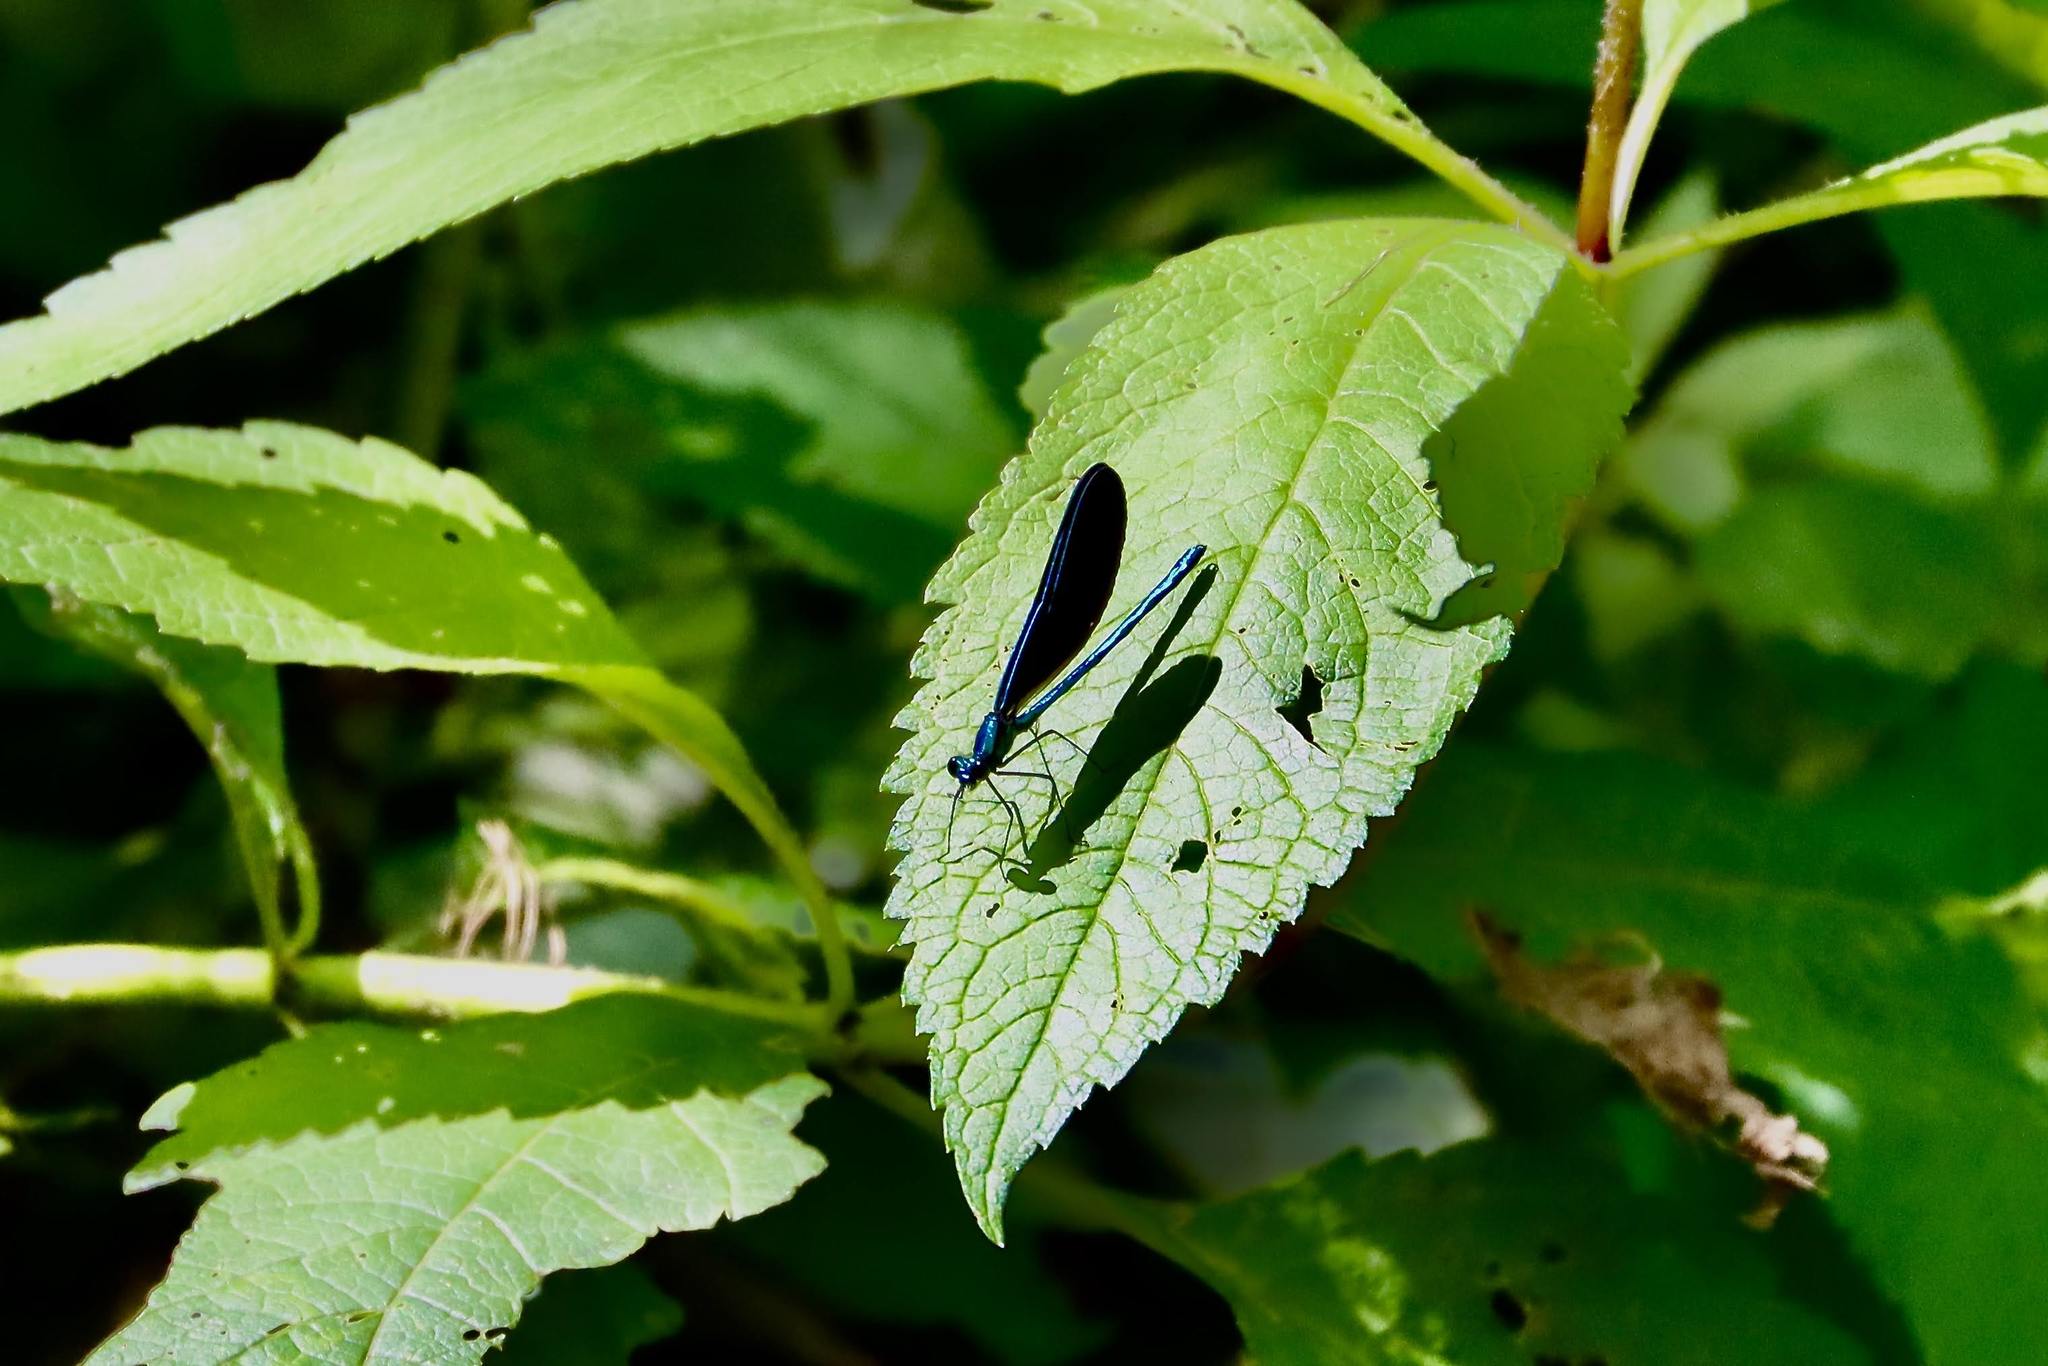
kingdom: Animalia
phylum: Arthropoda
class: Insecta
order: Odonata
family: Calopterygidae
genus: Calopteryx
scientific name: Calopteryx maculata
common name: Ebony jewelwing
